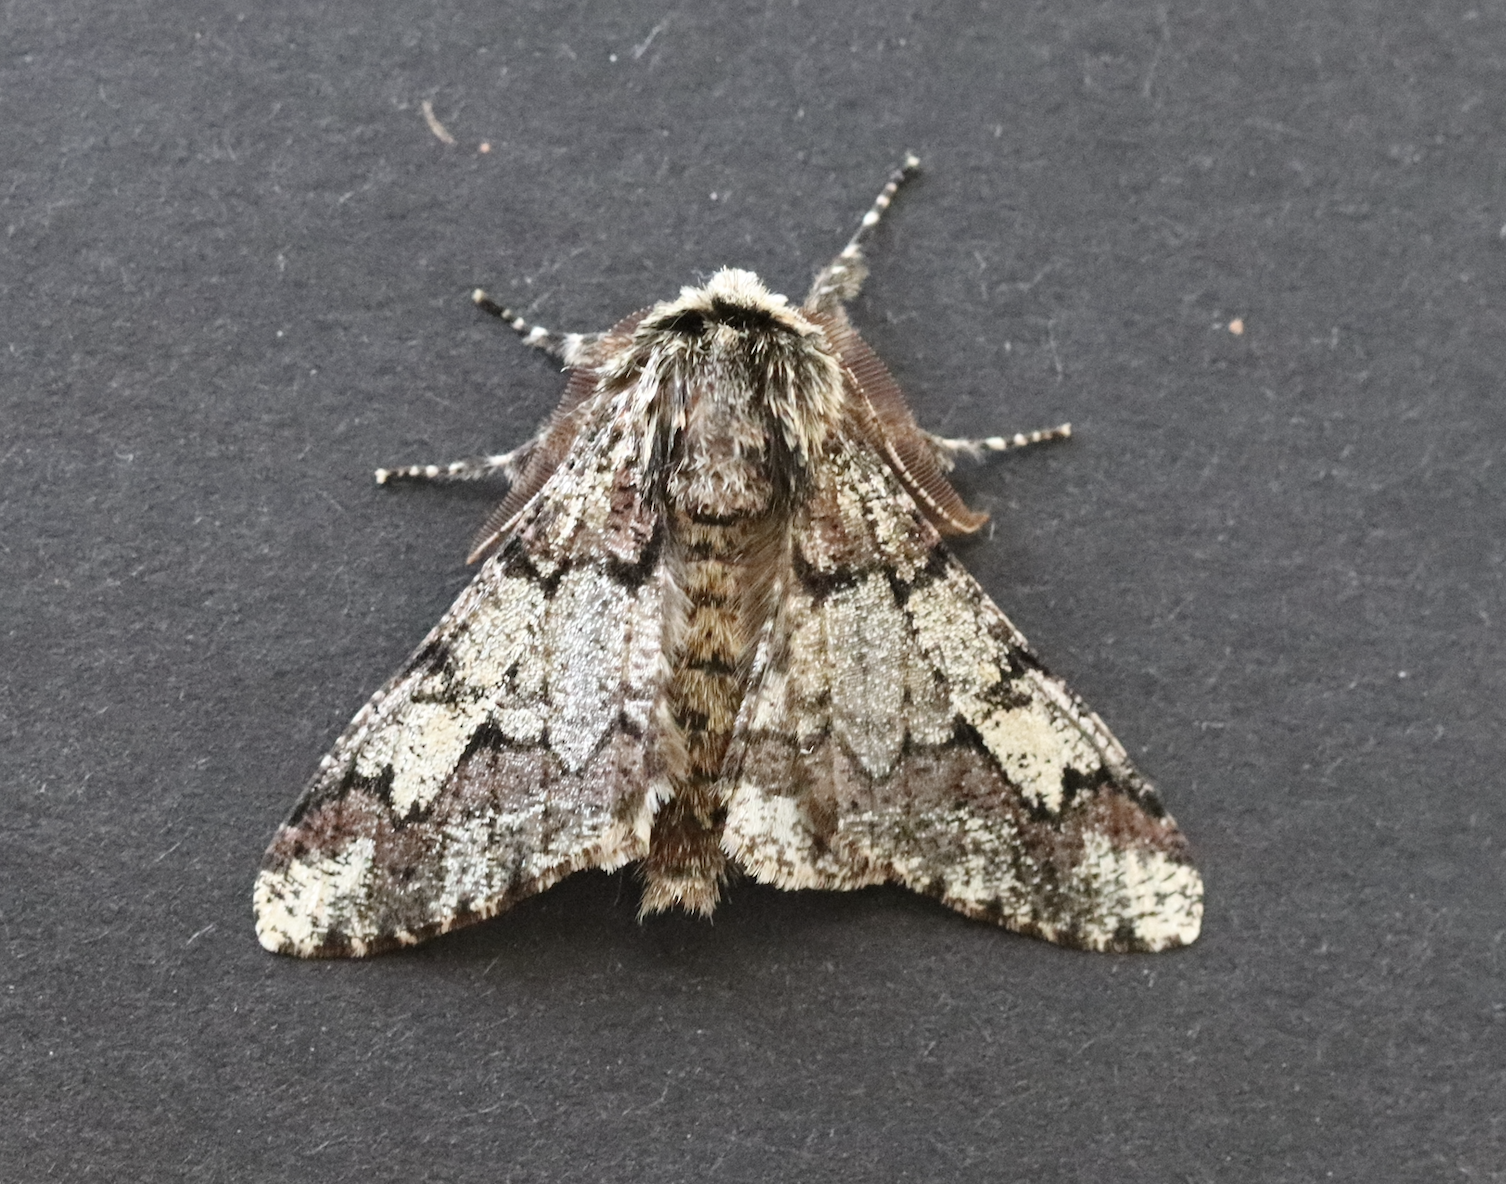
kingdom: Animalia
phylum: Arthropoda
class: Insecta
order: Lepidoptera
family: Geometridae
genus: Biston
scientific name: Biston strataria
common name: Oak beauty
